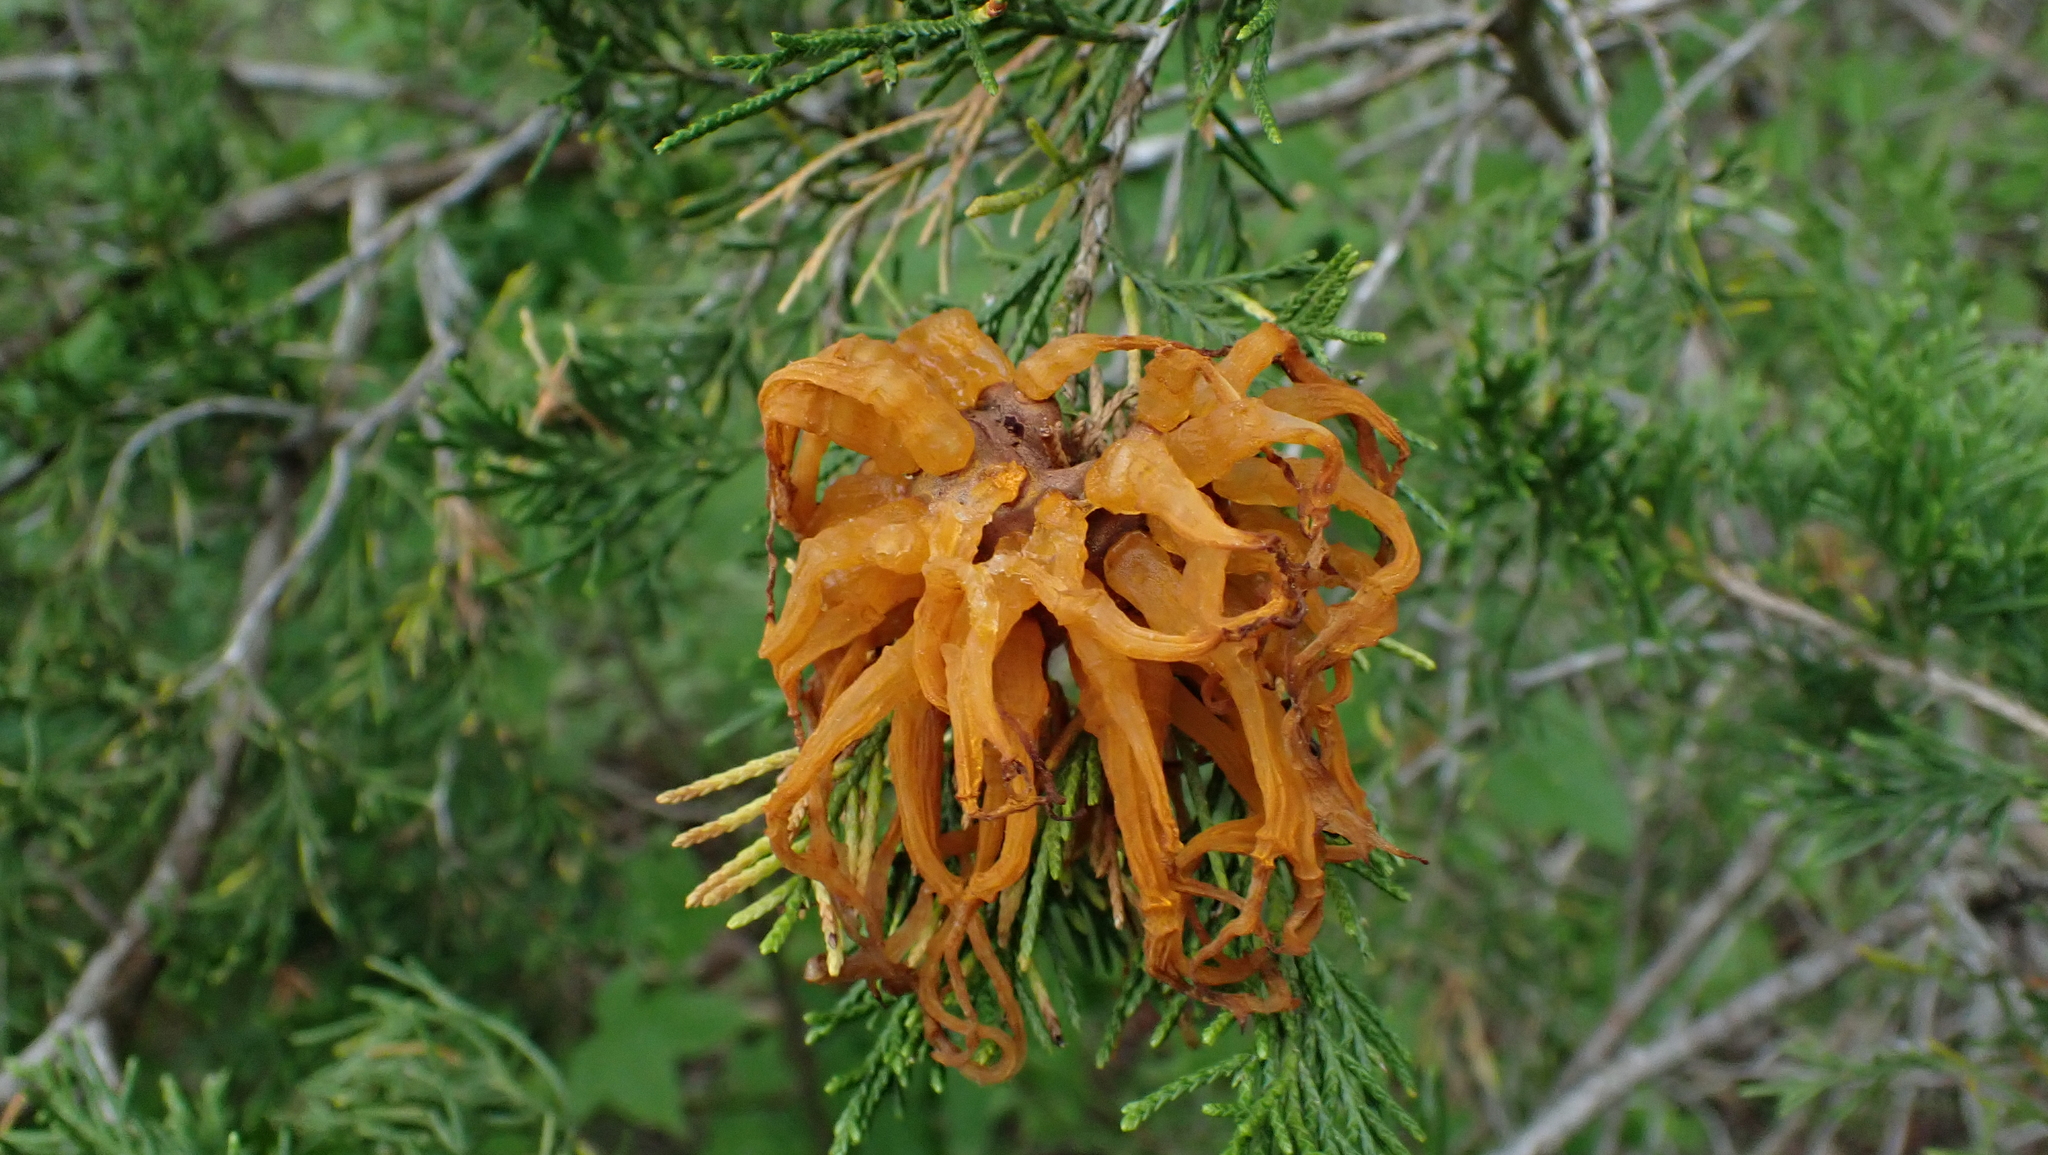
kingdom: Fungi
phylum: Basidiomycota
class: Pucciniomycetes
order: Pucciniales
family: Gymnosporangiaceae
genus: Gymnosporangium
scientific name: Gymnosporangium juniperi-virginianae
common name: Juniper-apple rust
